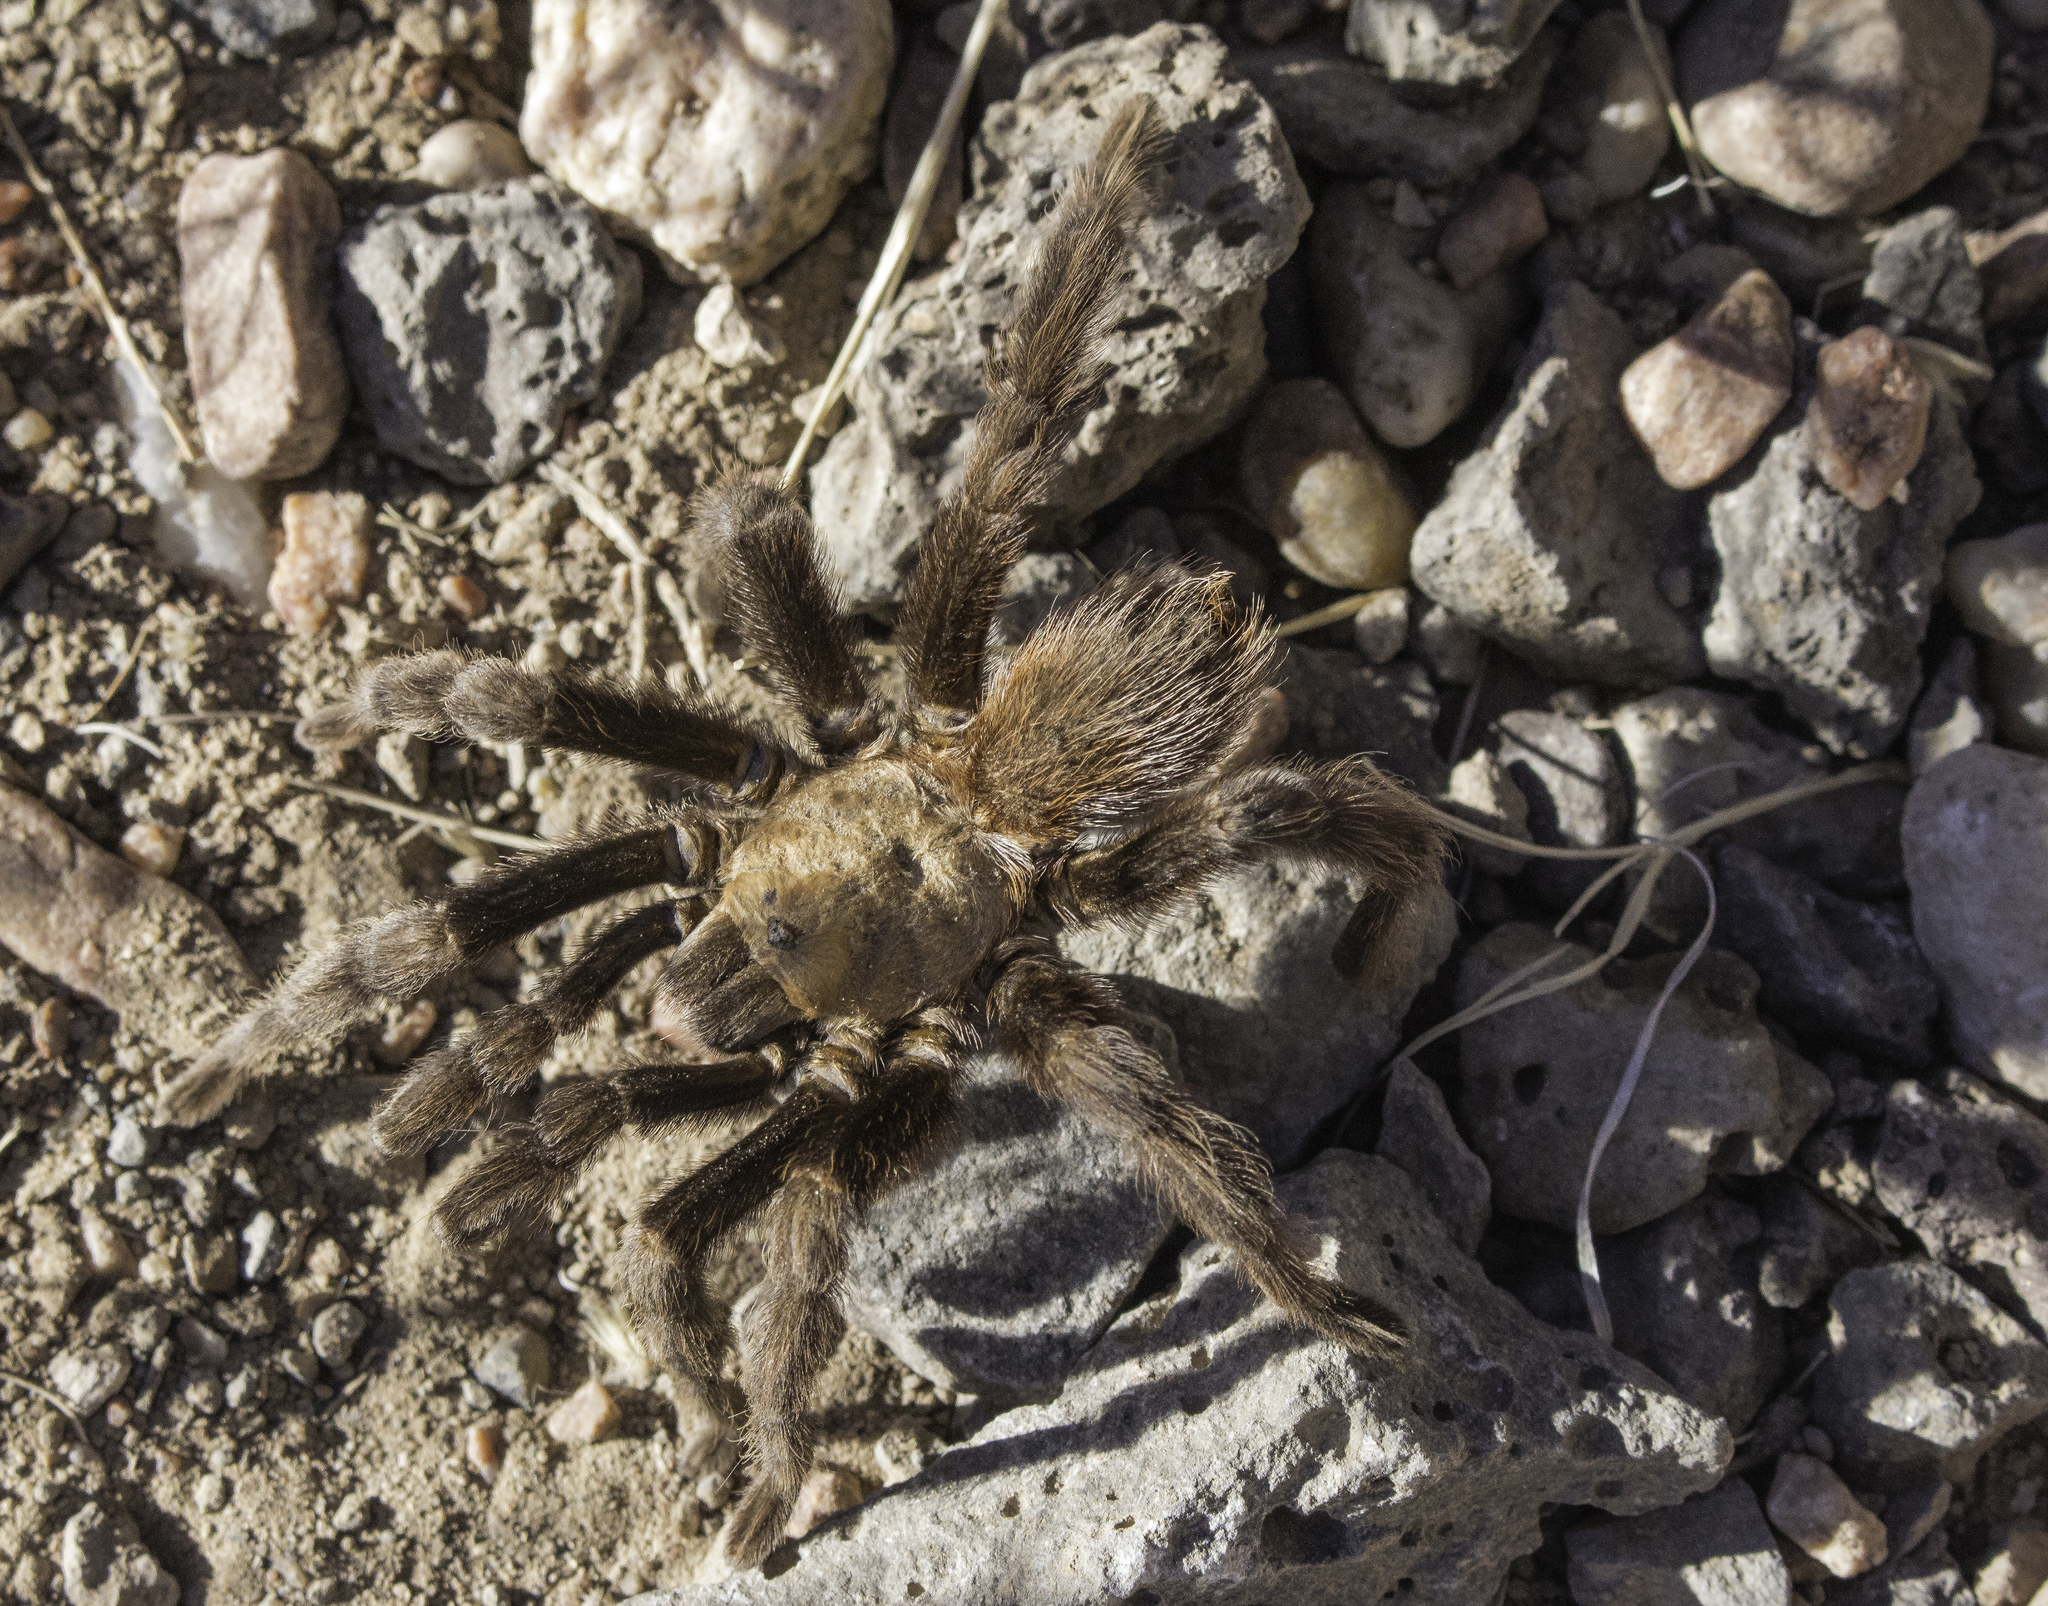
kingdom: Animalia
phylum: Arthropoda
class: Arachnida
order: Araneae
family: Theraphosidae
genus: Aphonopelma
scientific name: Aphonopelma hentzi
